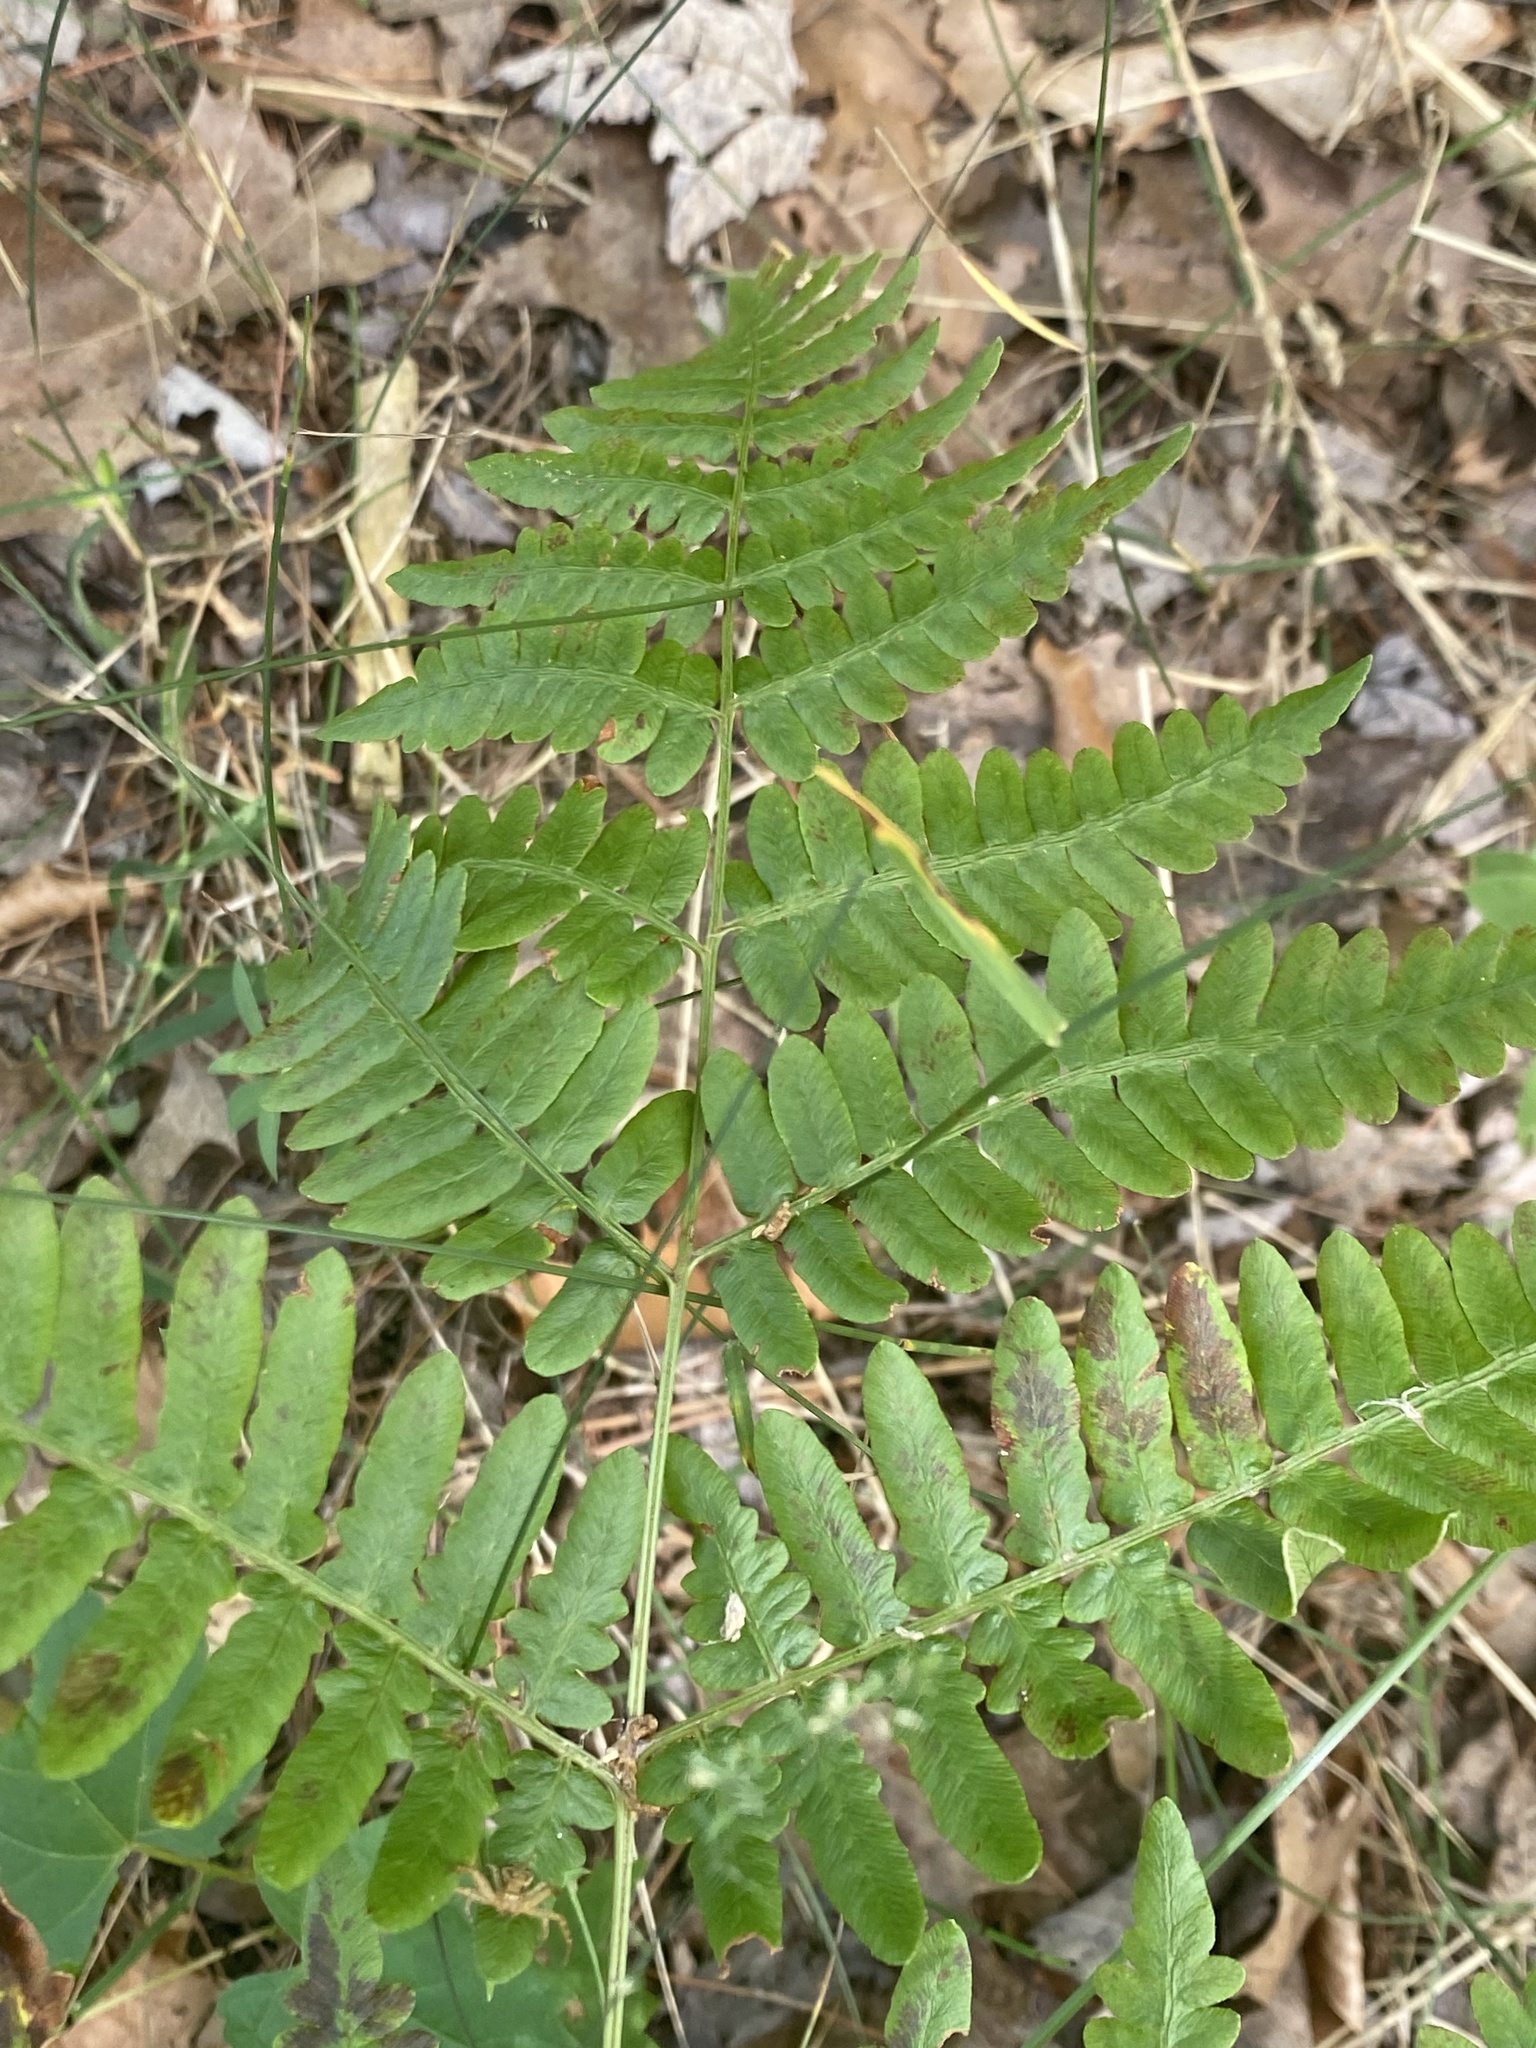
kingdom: Plantae
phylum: Tracheophyta
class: Polypodiopsida
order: Polypodiales
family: Dennstaedtiaceae
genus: Pteridium
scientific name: Pteridium aquilinum
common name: Bracken
